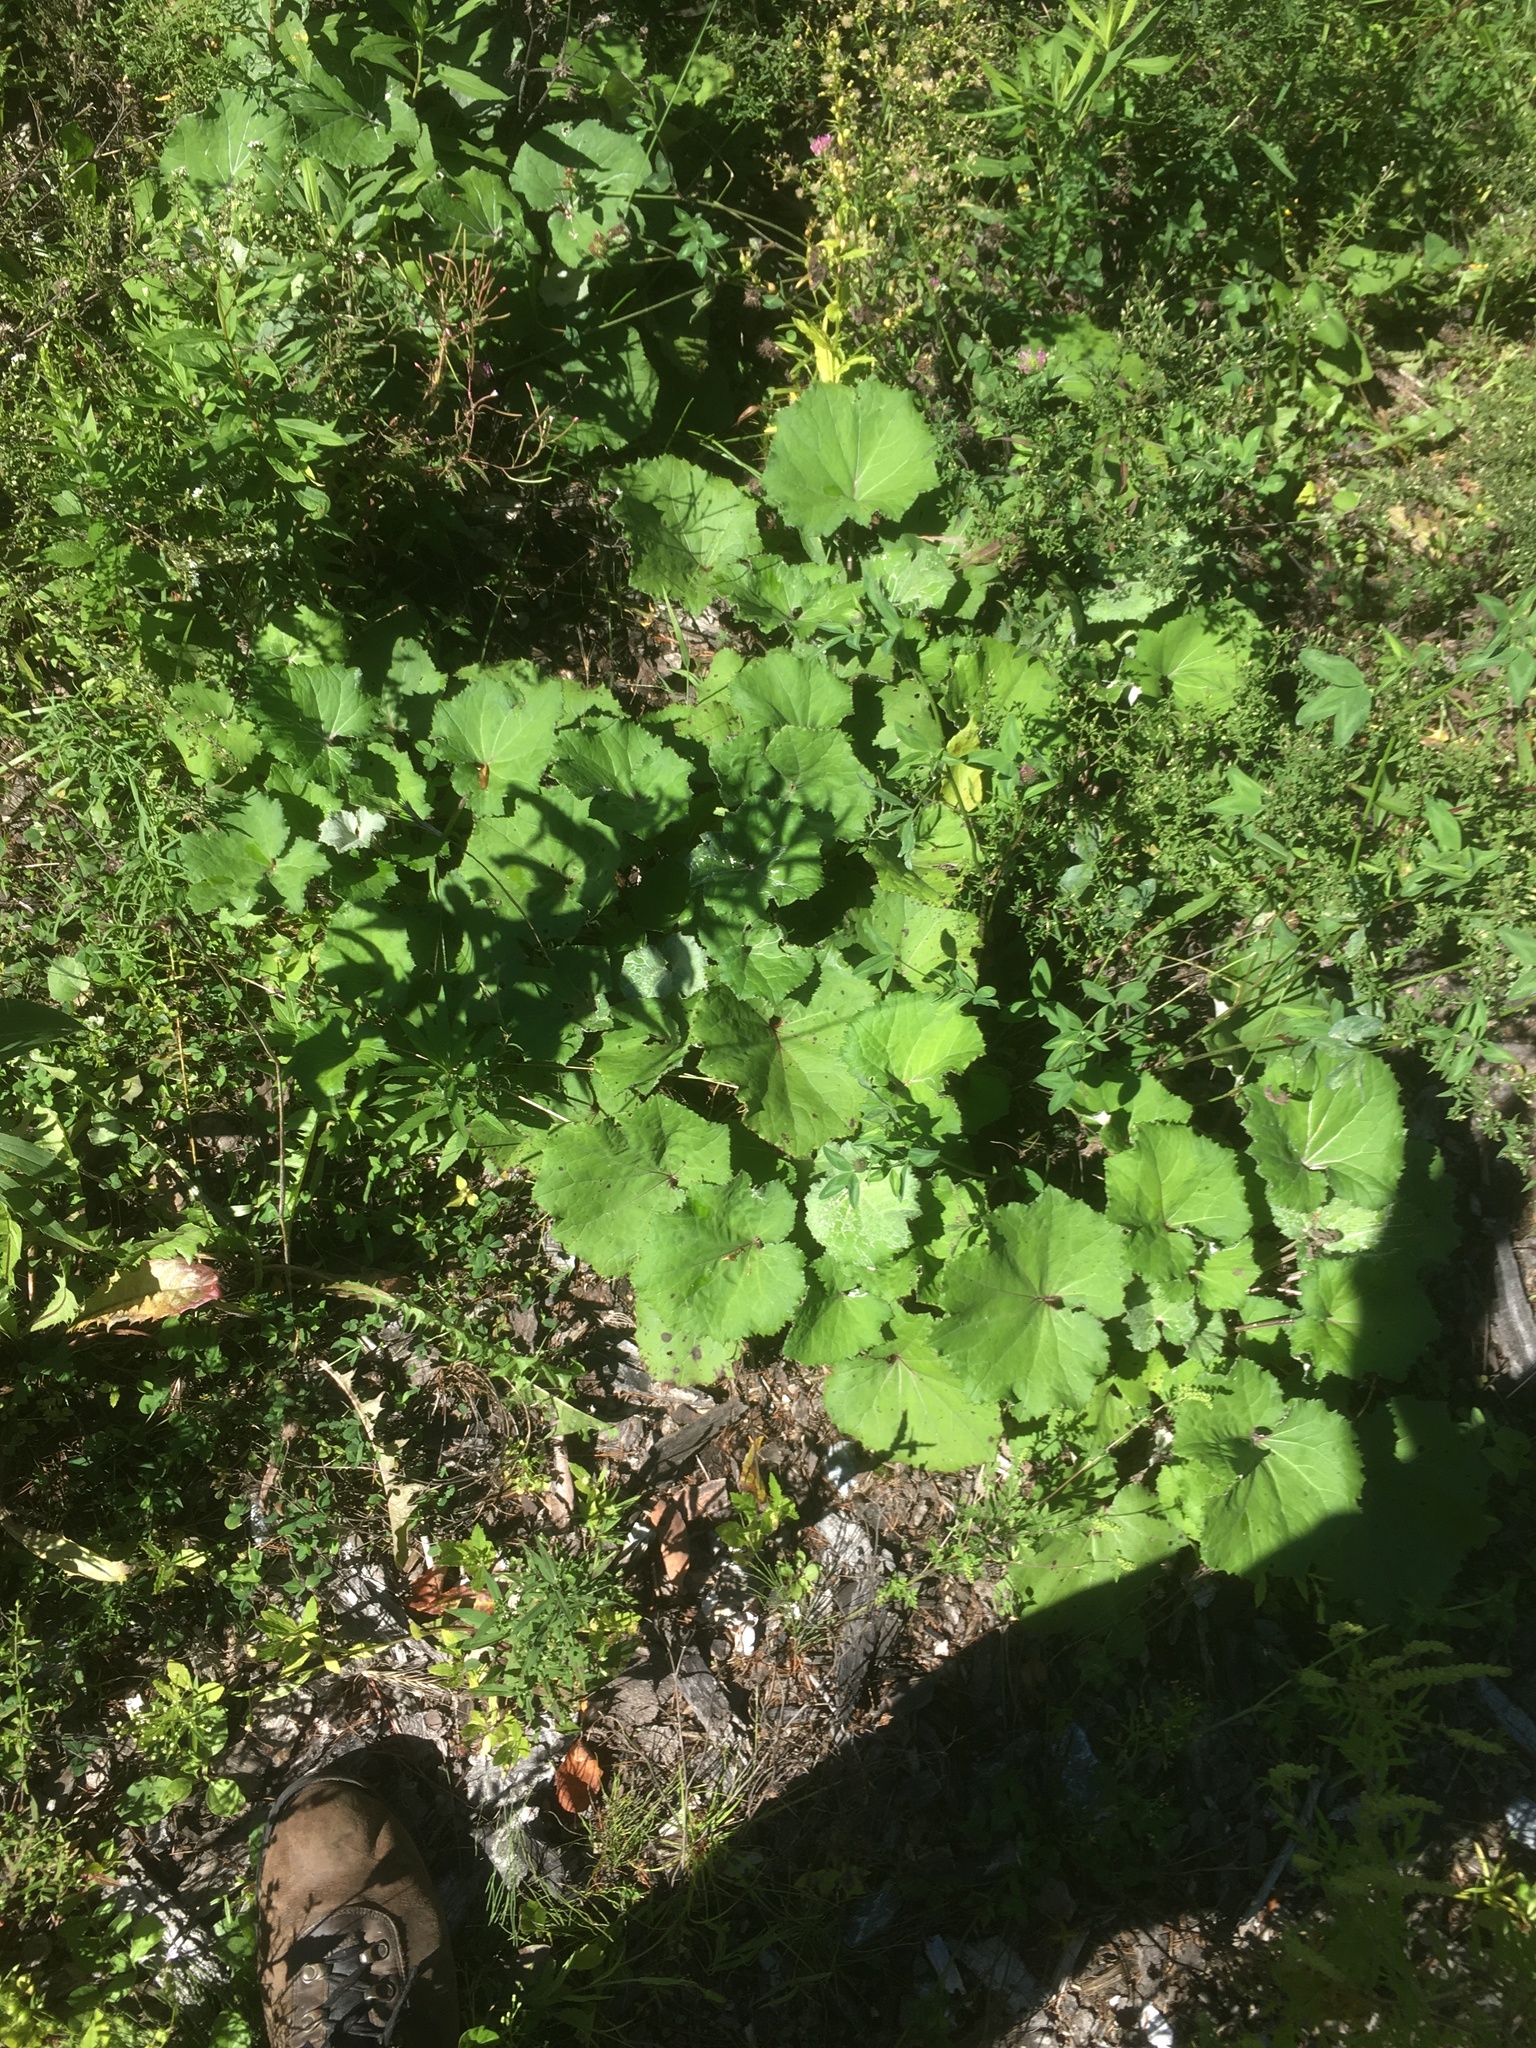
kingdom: Plantae
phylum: Tracheophyta
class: Magnoliopsida
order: Asterales
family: Asteraceae
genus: Tussilago
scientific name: Tussilago farfara
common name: Coltsfoot
